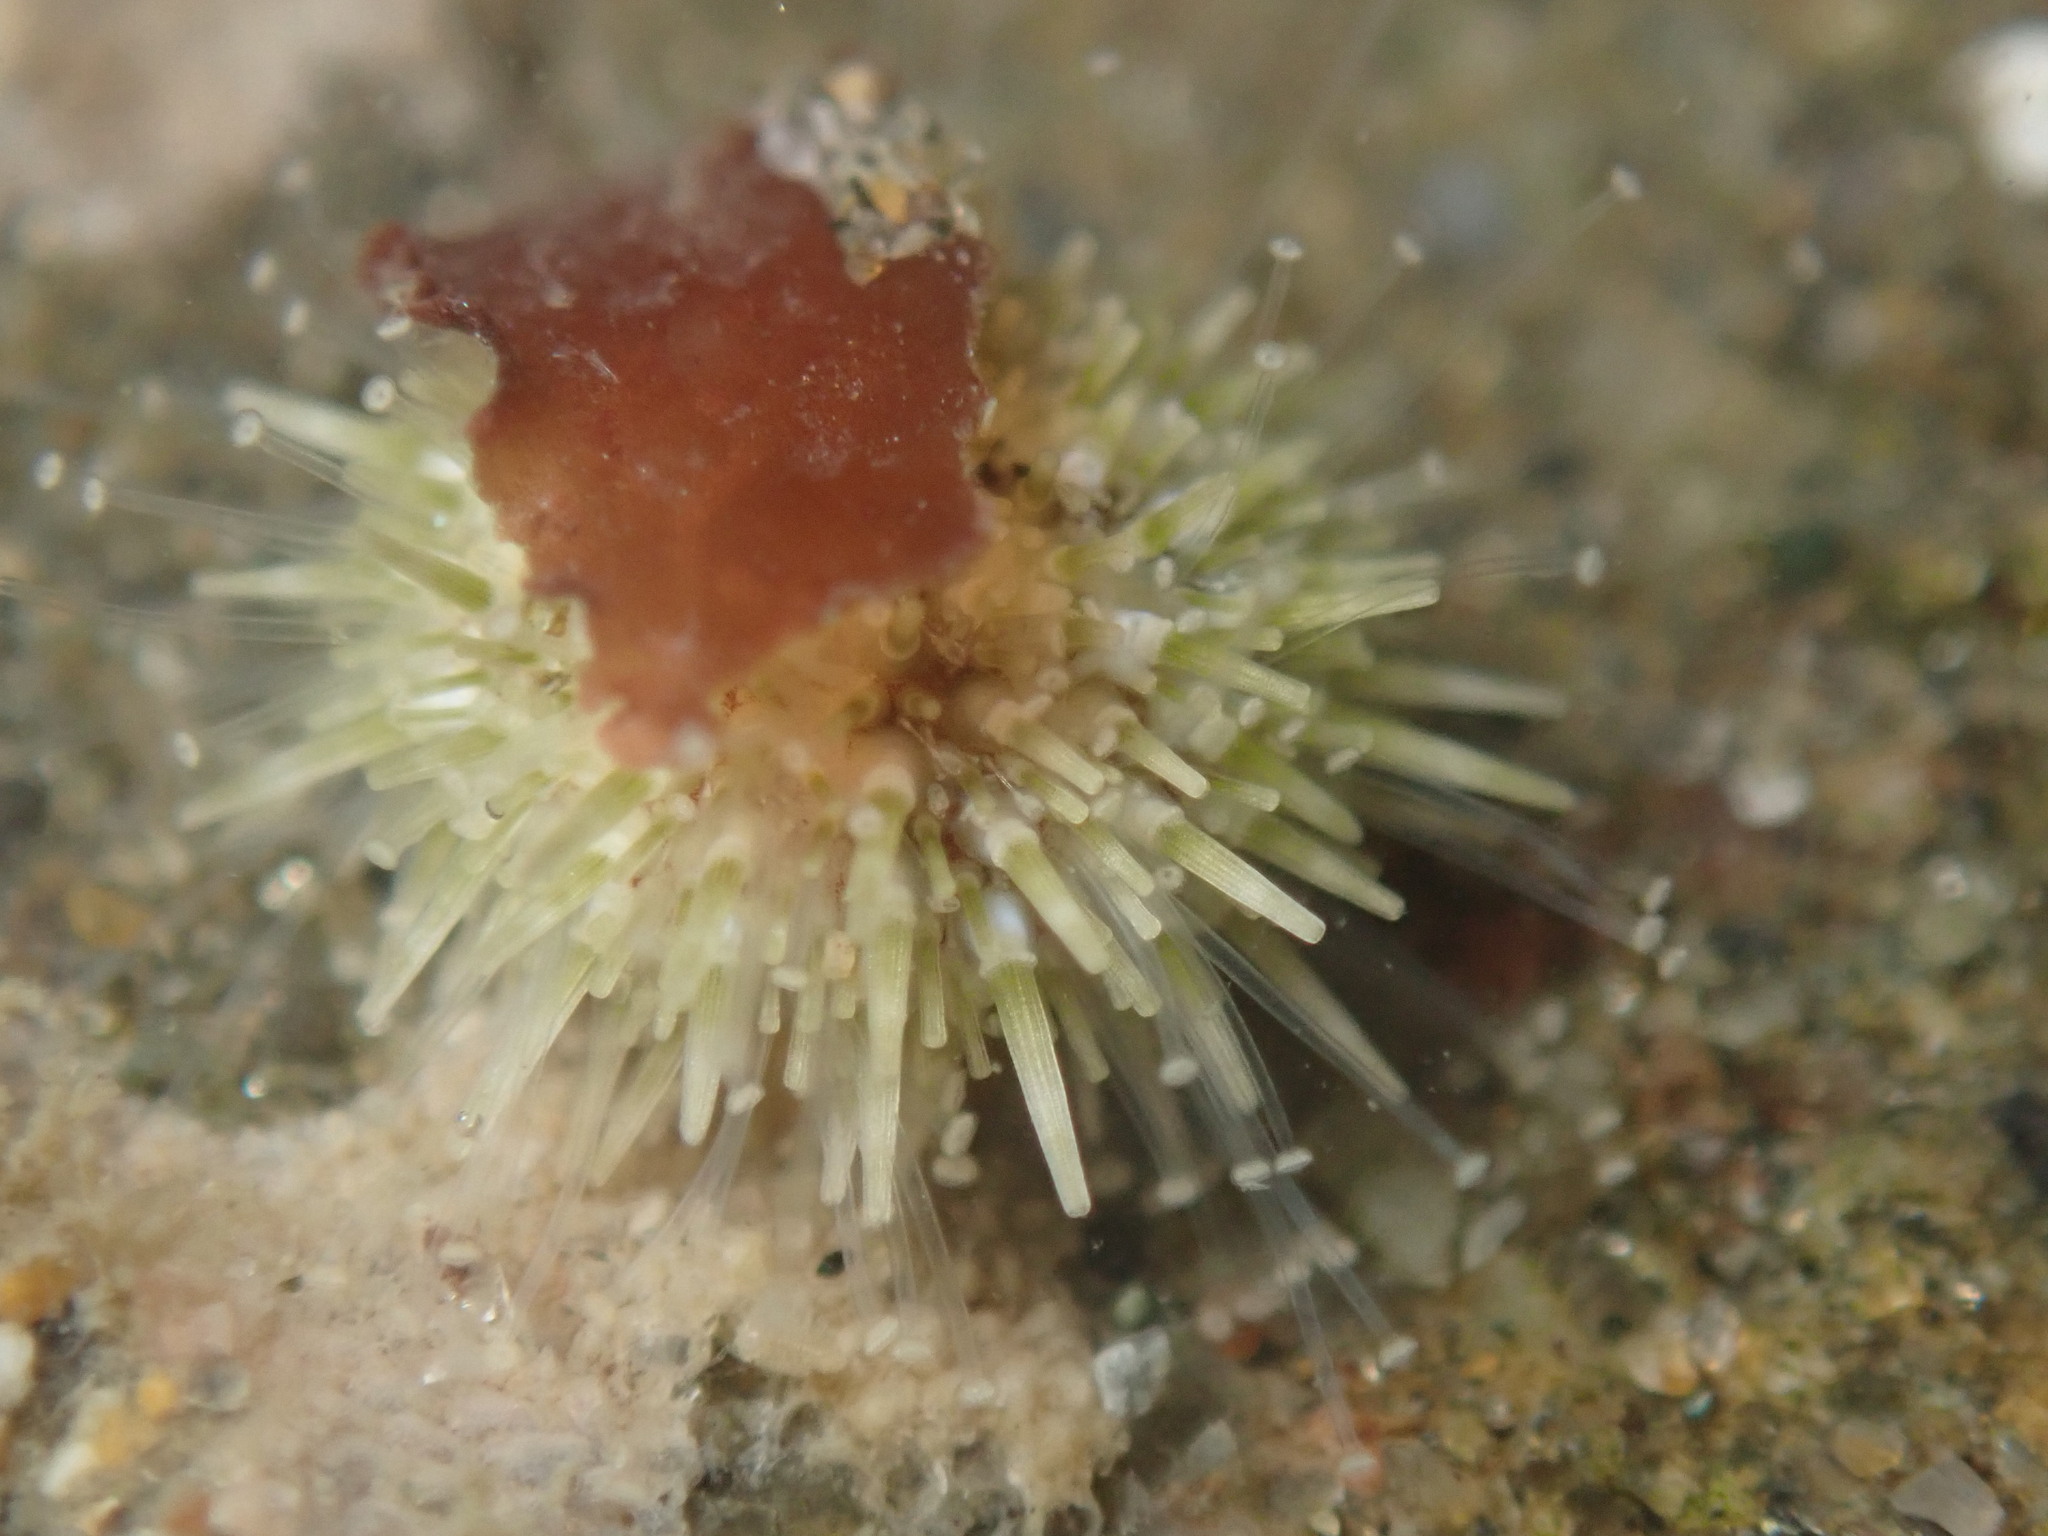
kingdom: Animalia
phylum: Echinodermata
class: Echinoidea
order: Camarodonta
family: Strongylocentrotidae
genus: Strongylocentrotus
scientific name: Strongylocentrotus purpuratus
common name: Purple sea urchin
